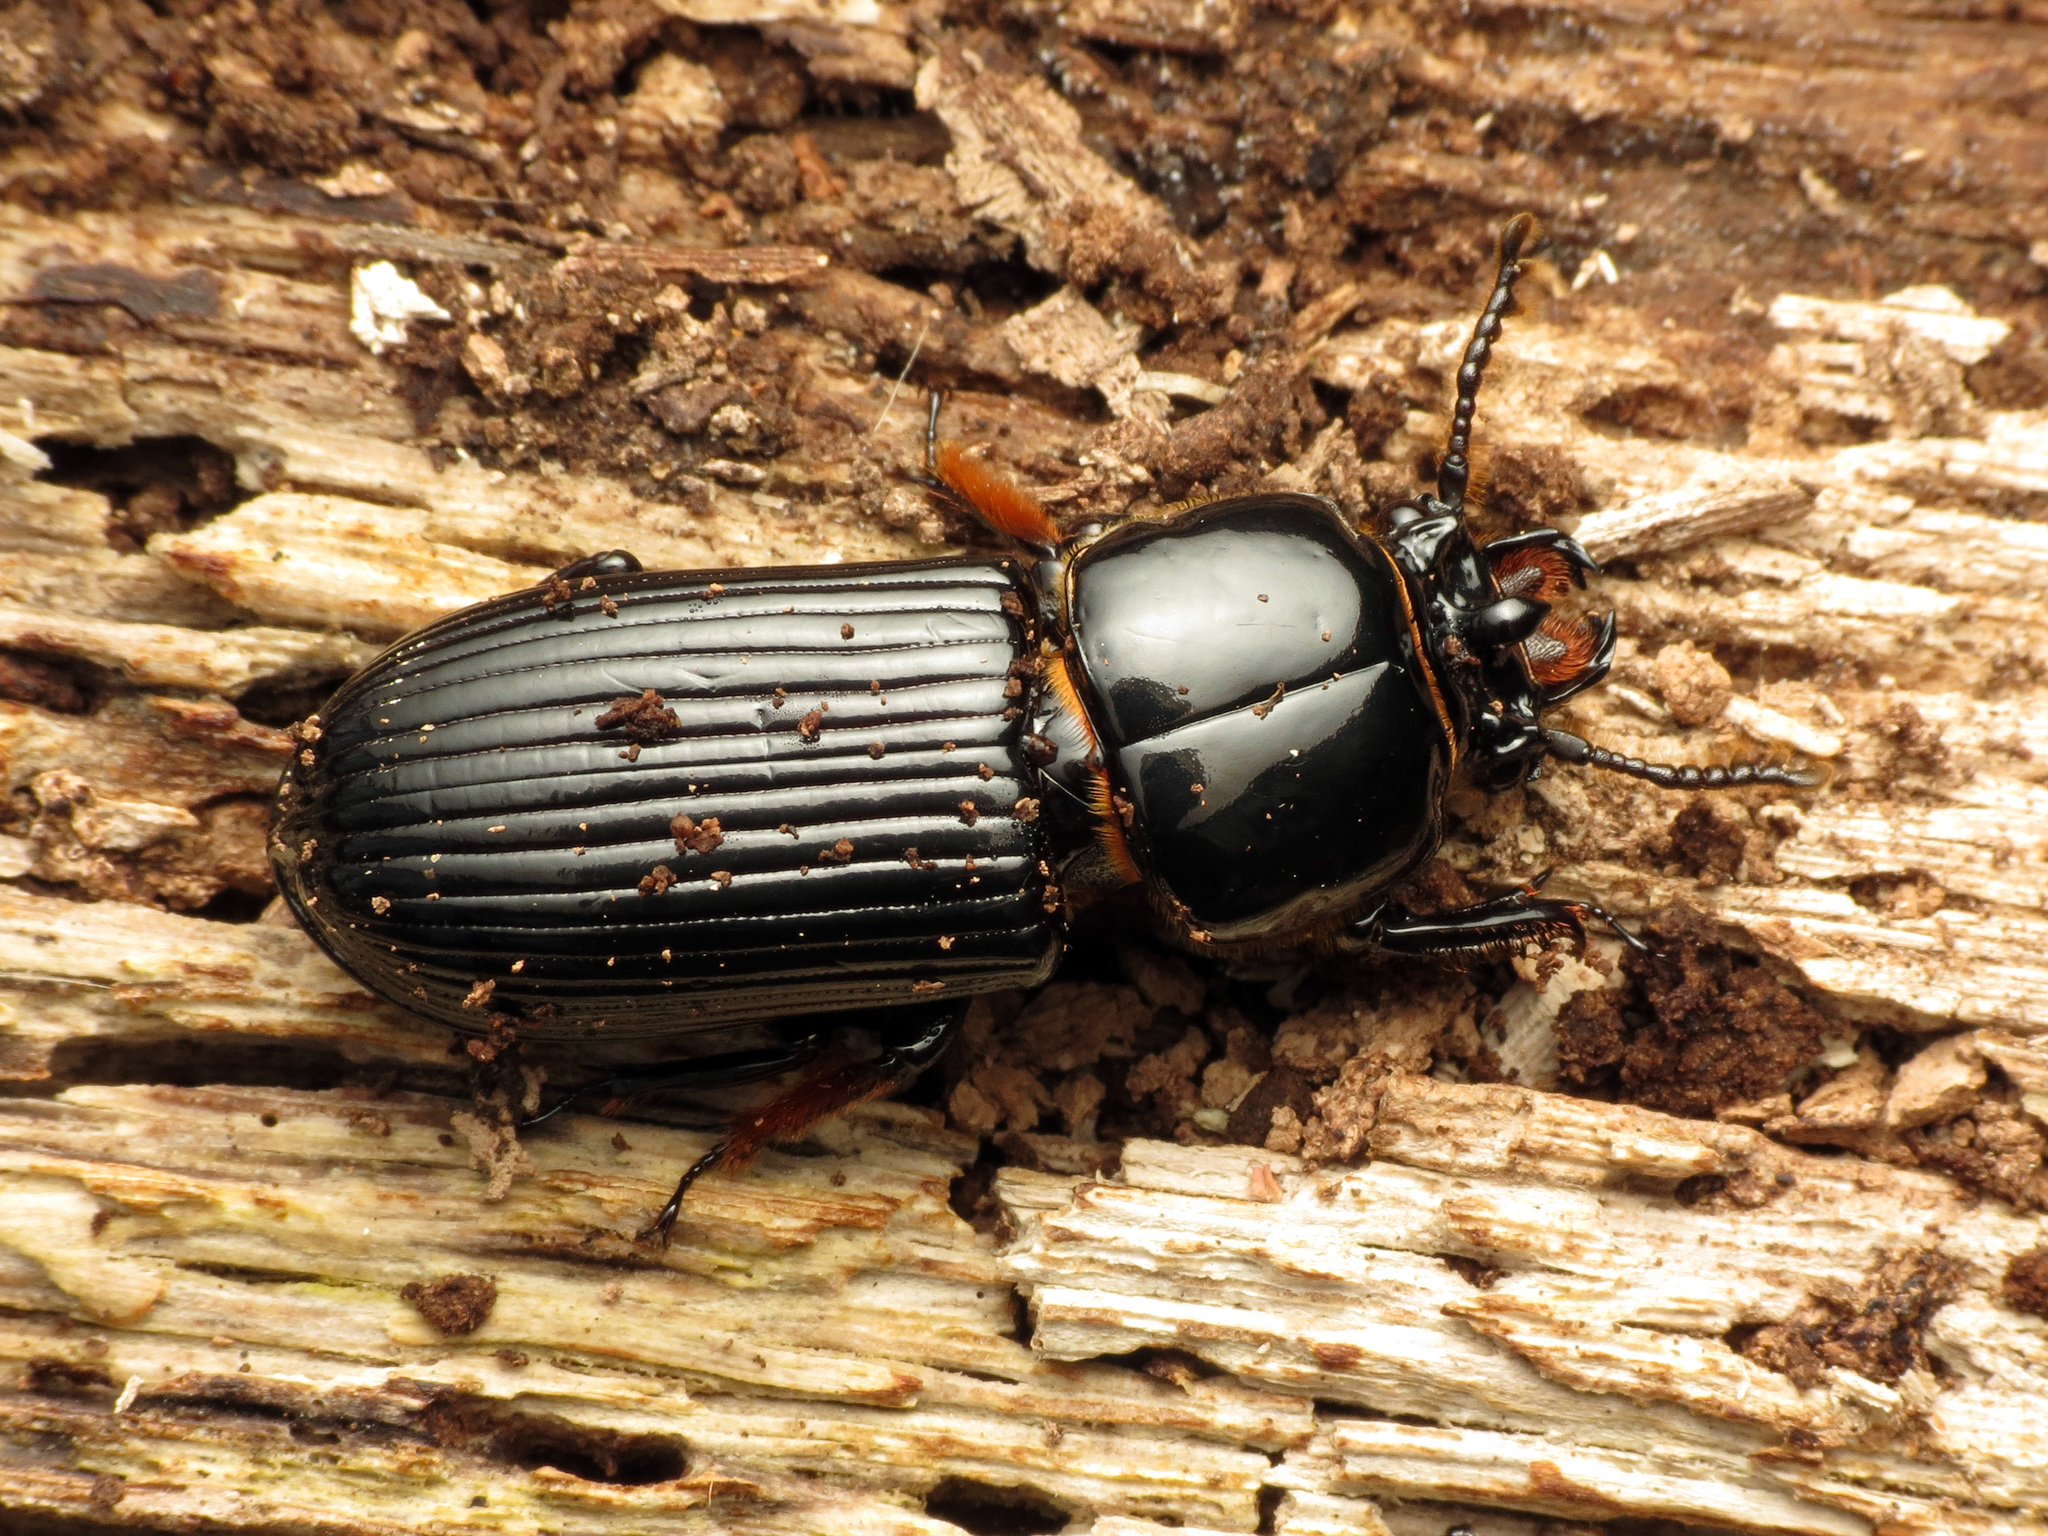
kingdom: Animalia
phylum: Arthropoda
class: Insecta
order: Coleoptera
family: Passalidae
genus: Odontotaenius
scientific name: Odontotaenius disjunctus
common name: Patent leather beetle
